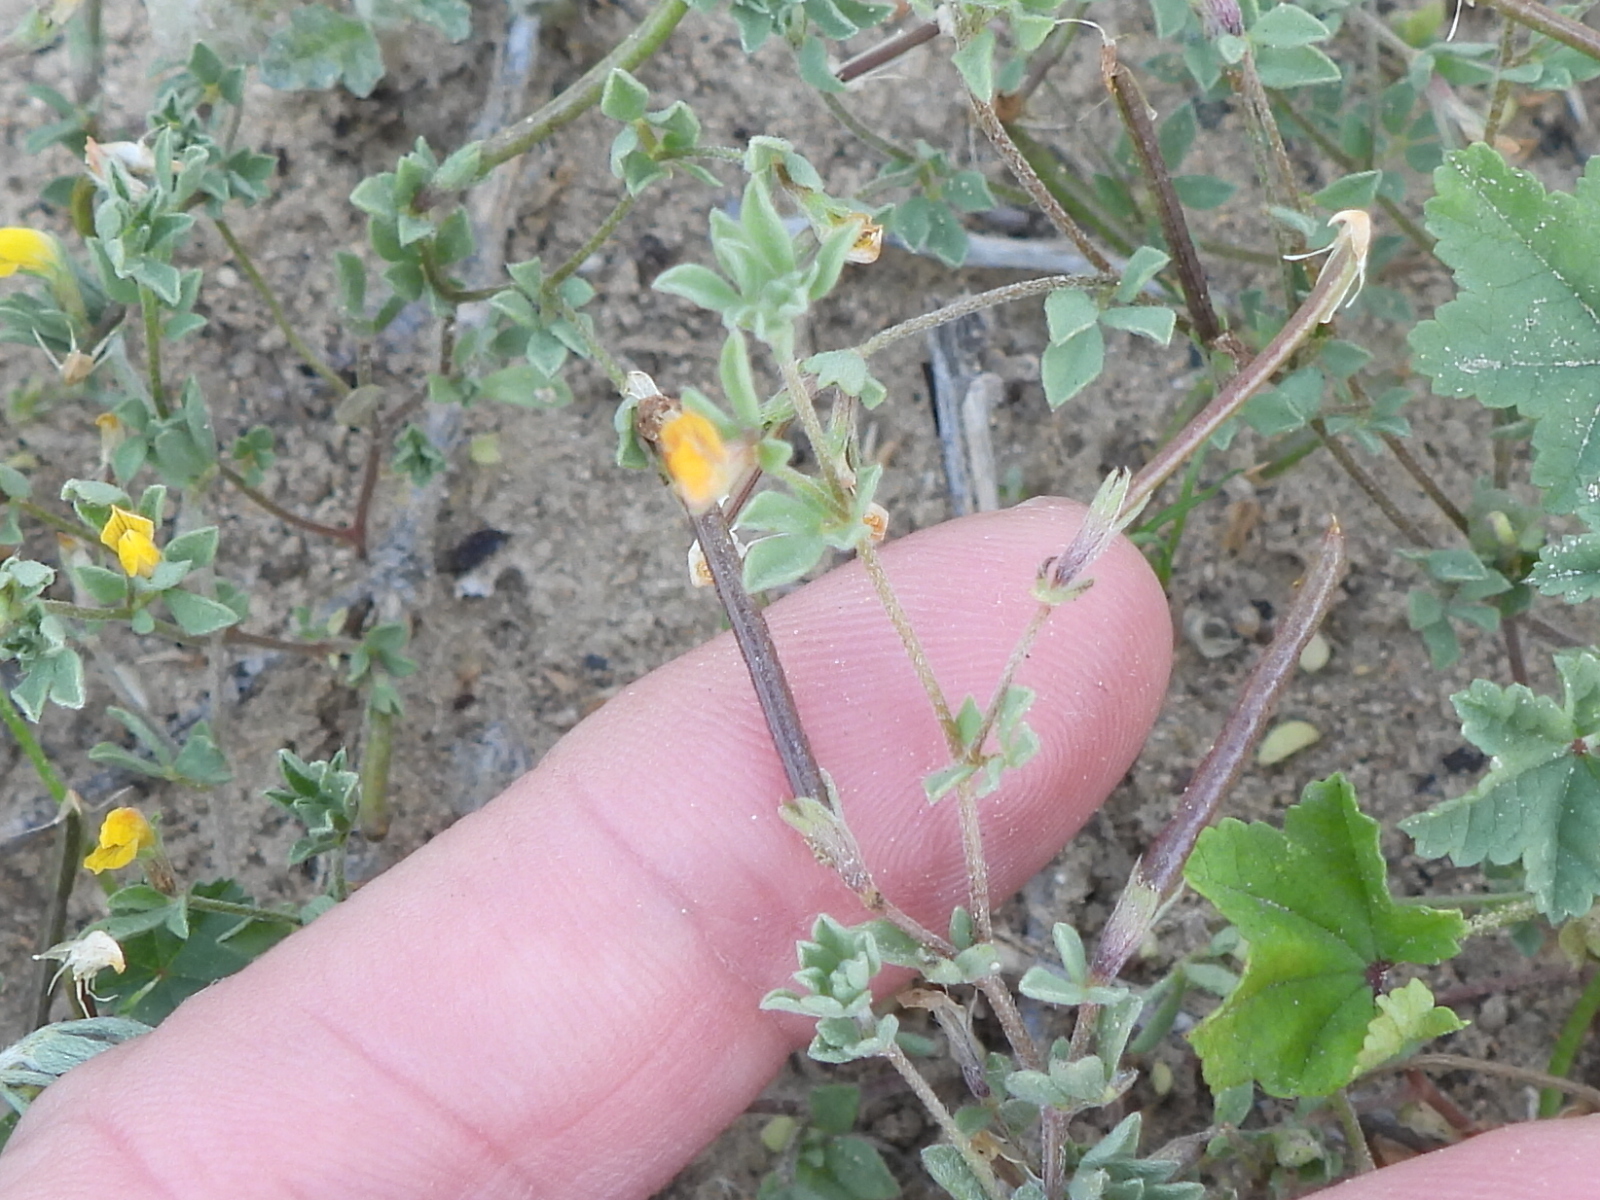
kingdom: Plantae
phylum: Tracheophyta
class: Magnoliopsida
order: Fabales
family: Fabaceae
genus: Lotus
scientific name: Lotus halophilus
